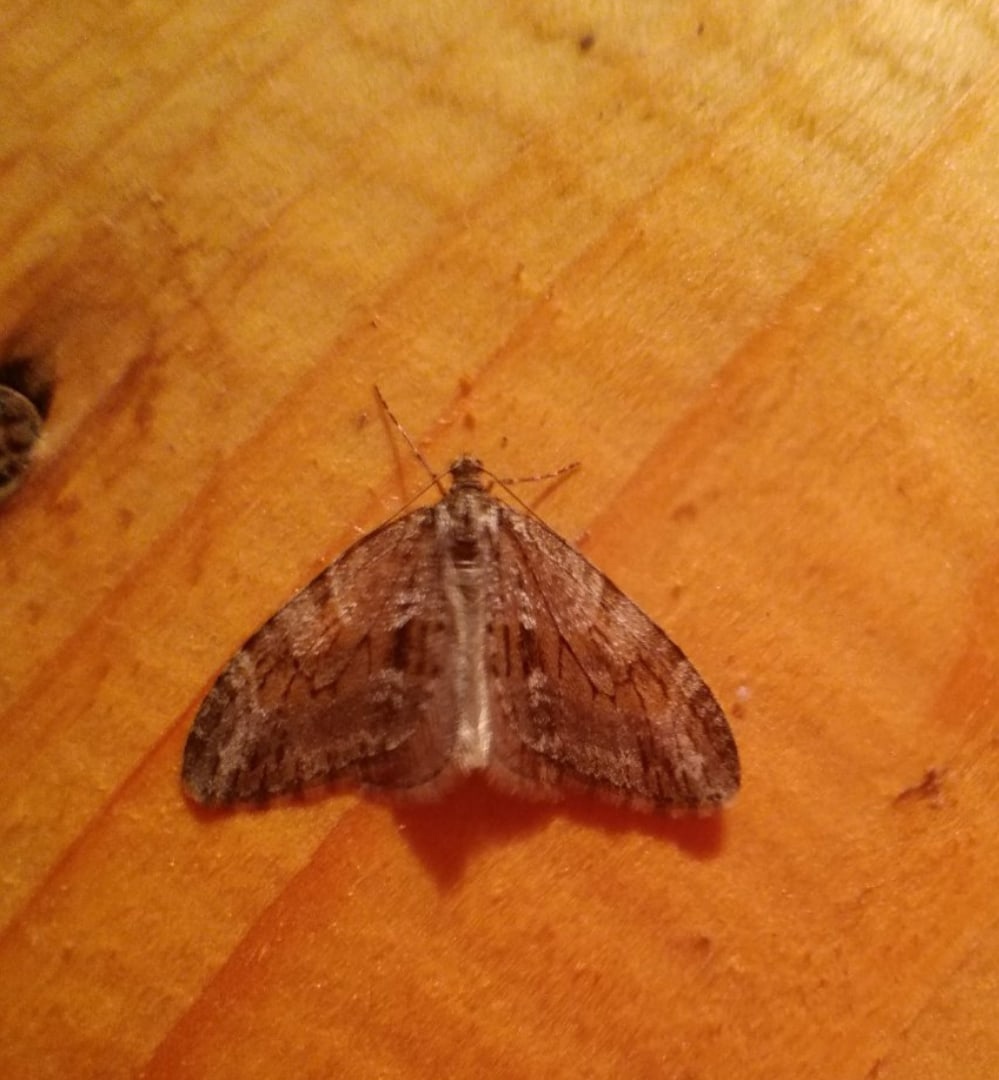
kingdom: Animalia
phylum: Arthropoda
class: Insecta
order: Lepidoptera
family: Geometridae
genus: Trichopteryx
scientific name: Trichopteryx polycommata
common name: Barred tooth-striped
